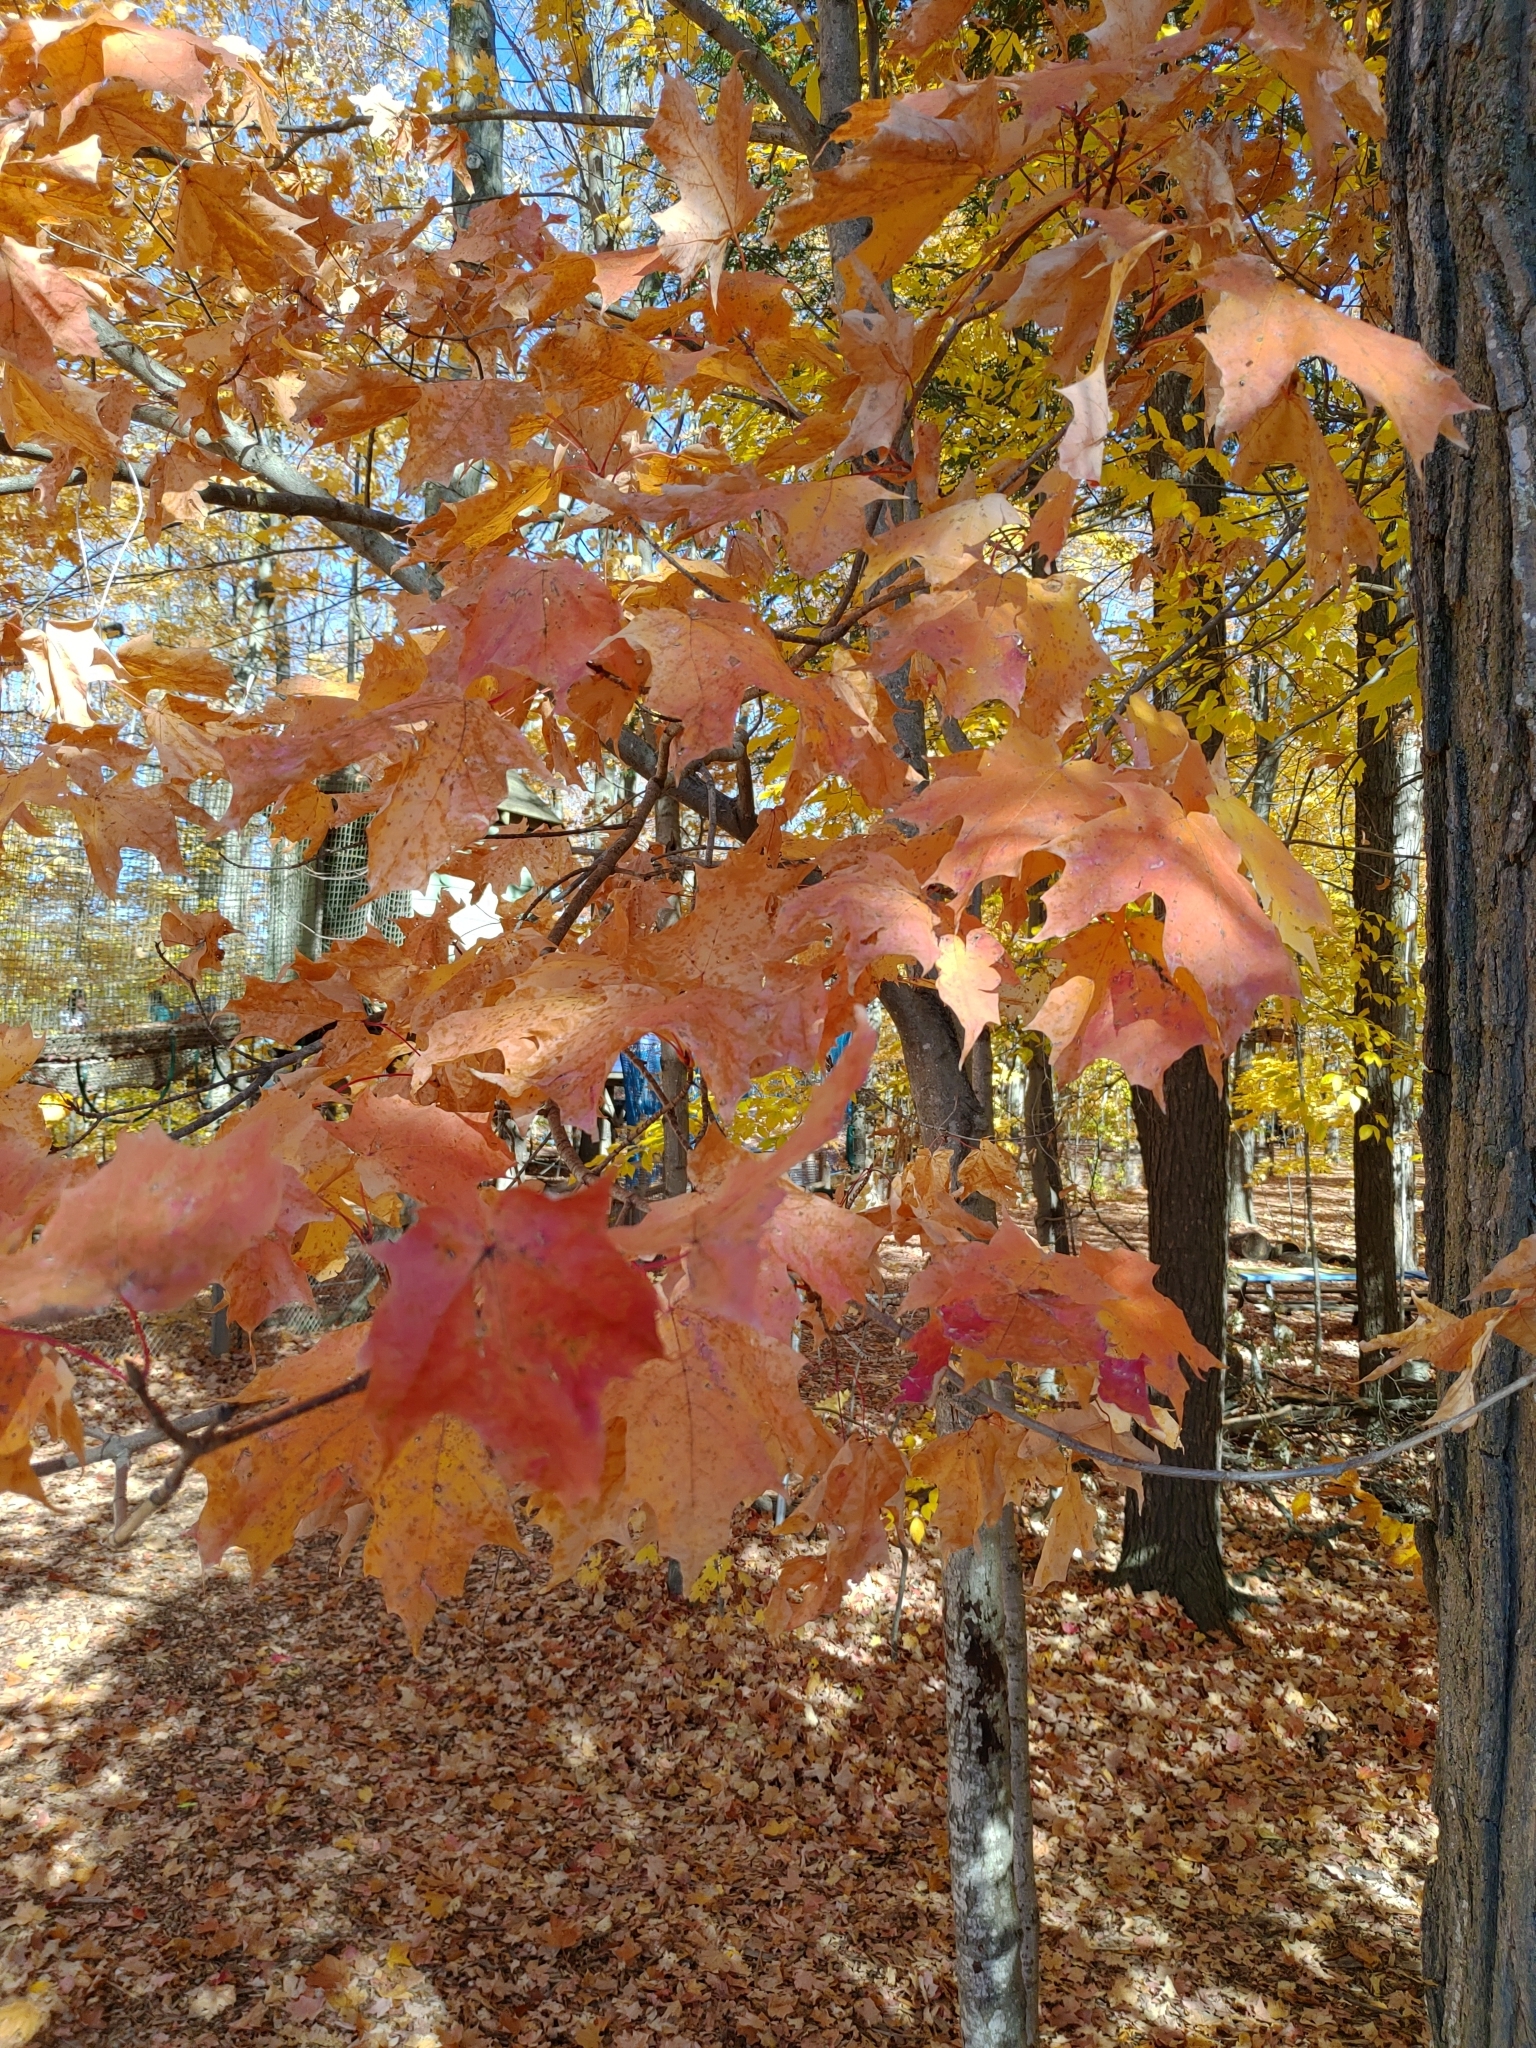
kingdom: Plantae
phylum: Tracheophyta
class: Magnoliopsida
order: Sapindales
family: Sapindaceae
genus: Acer
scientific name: Acer saccharum
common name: Sugar maple
